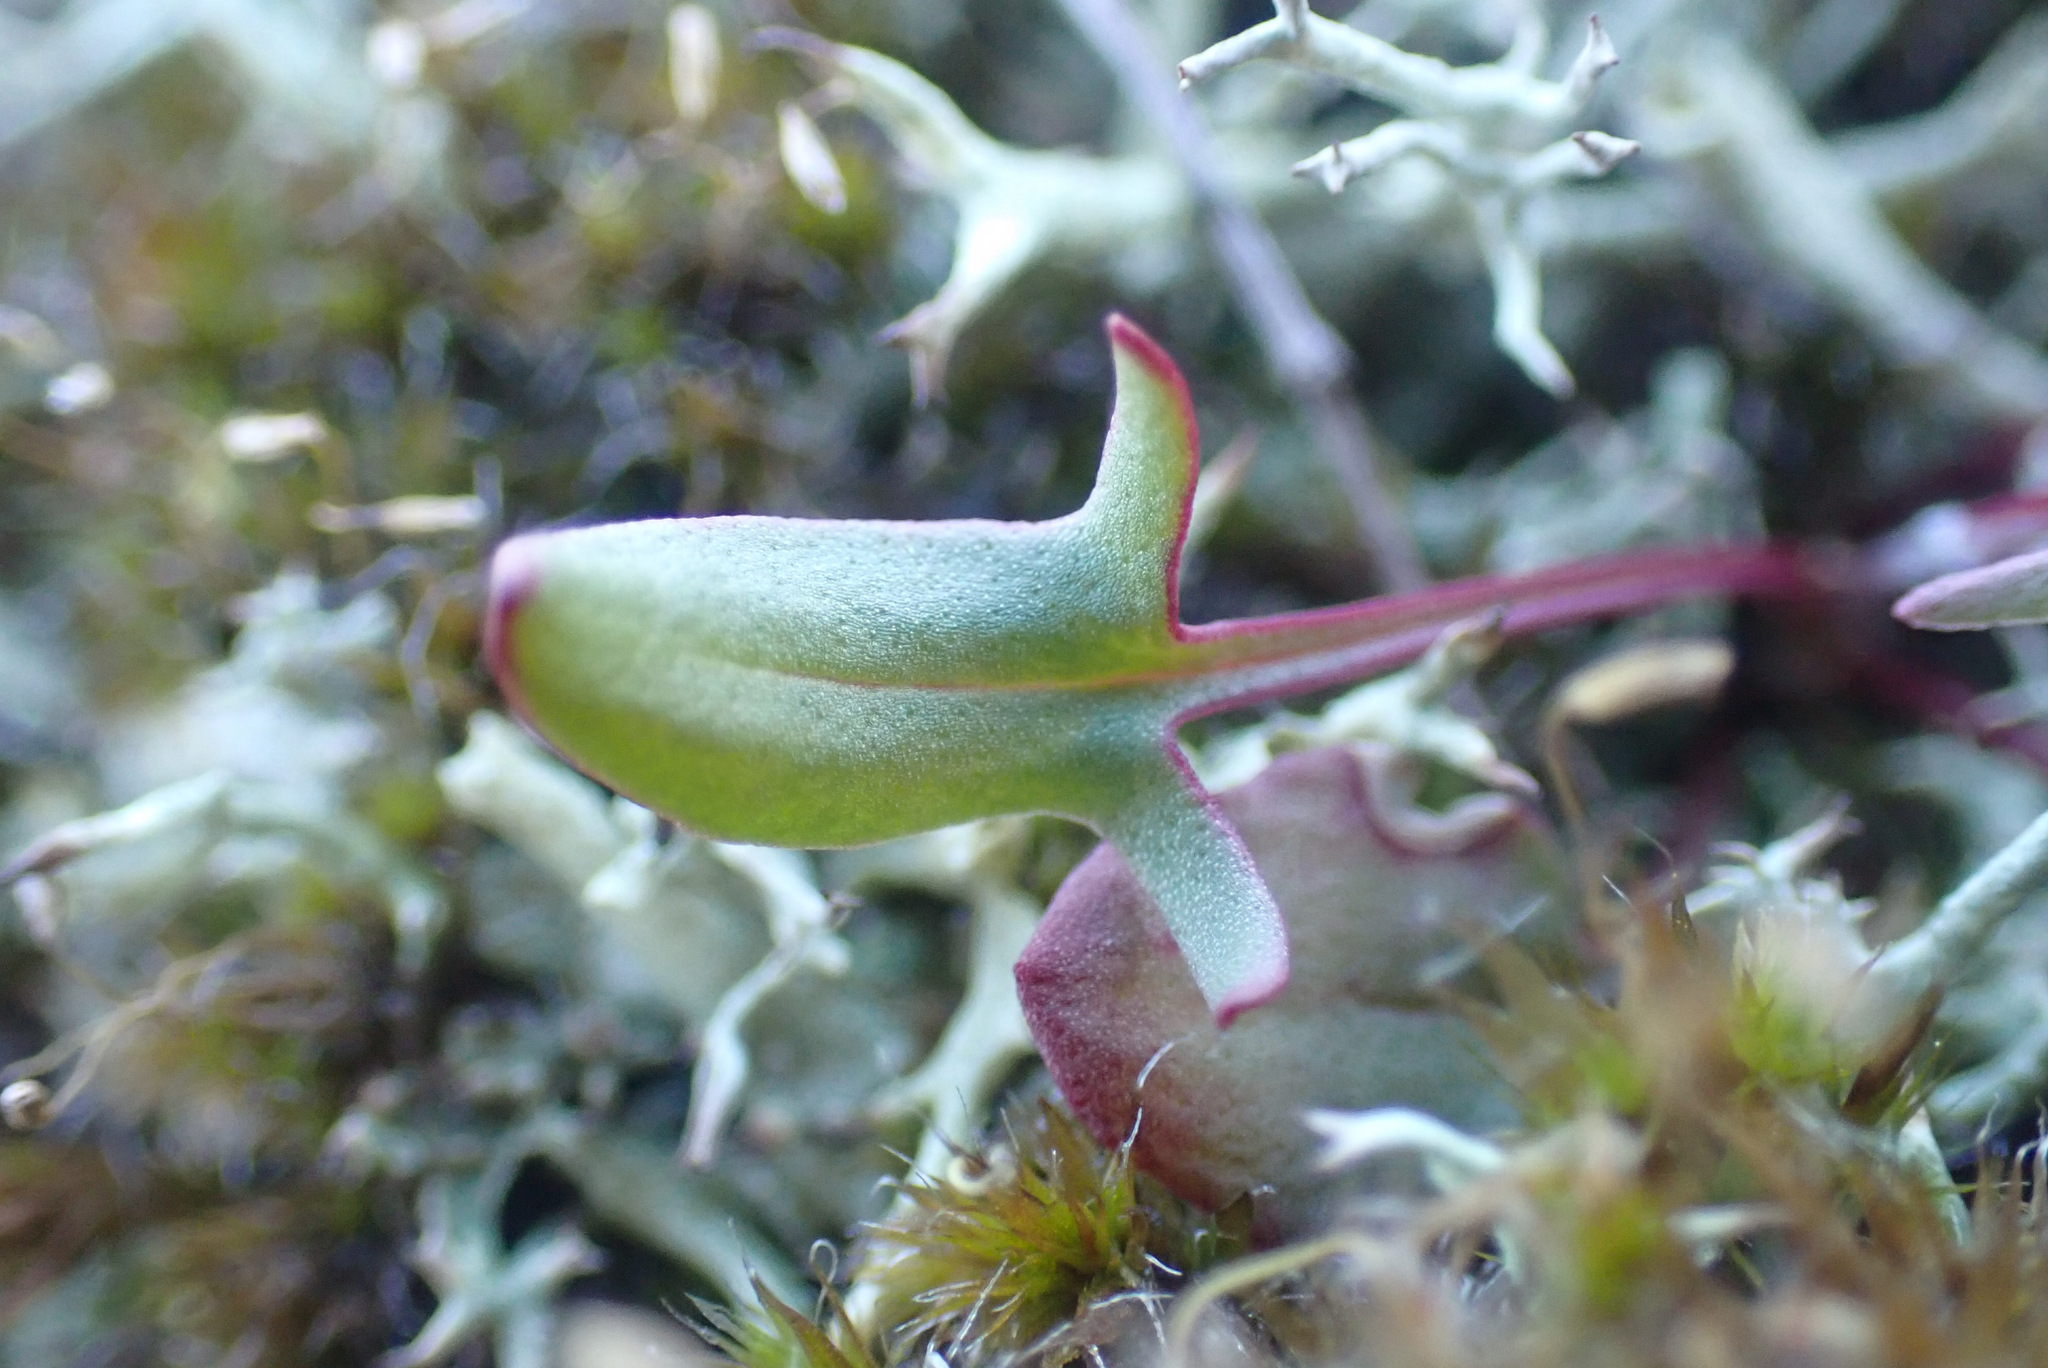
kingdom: Plantae
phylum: Tracheophyta
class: Magnoliopsida
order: Caryophyllales
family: Polygonaceae
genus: Rumex
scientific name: Rumex acetosella
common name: Common sheep sorrel
